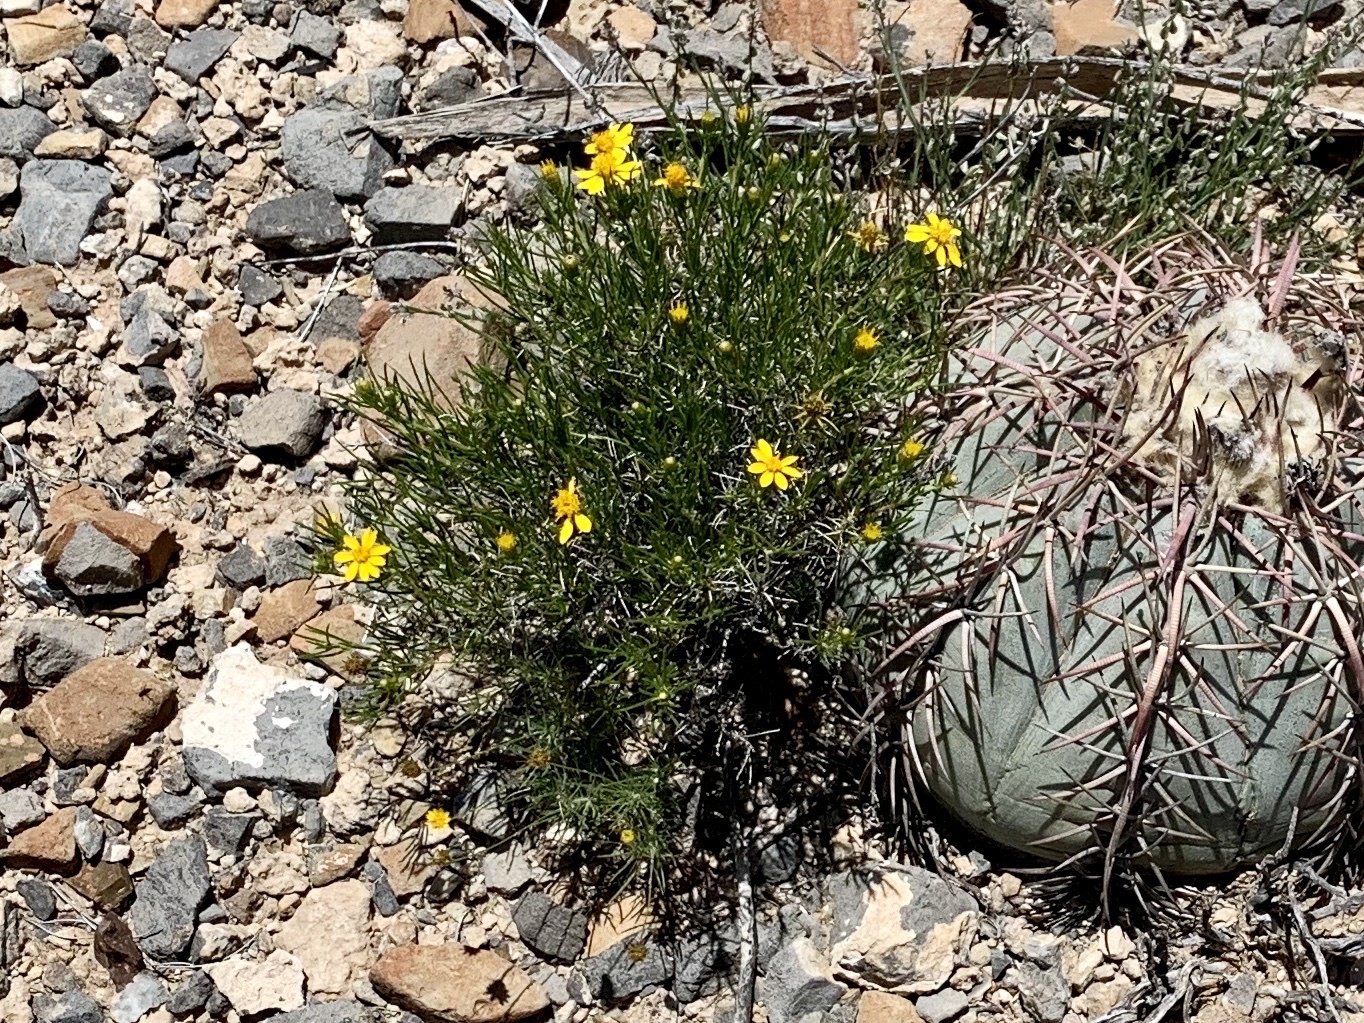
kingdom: Plantae
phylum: Tracheophyta
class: Magnoliopsida
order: Asterales
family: Asteraceae
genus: Thymophylla
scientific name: Thymophylla acerosa
